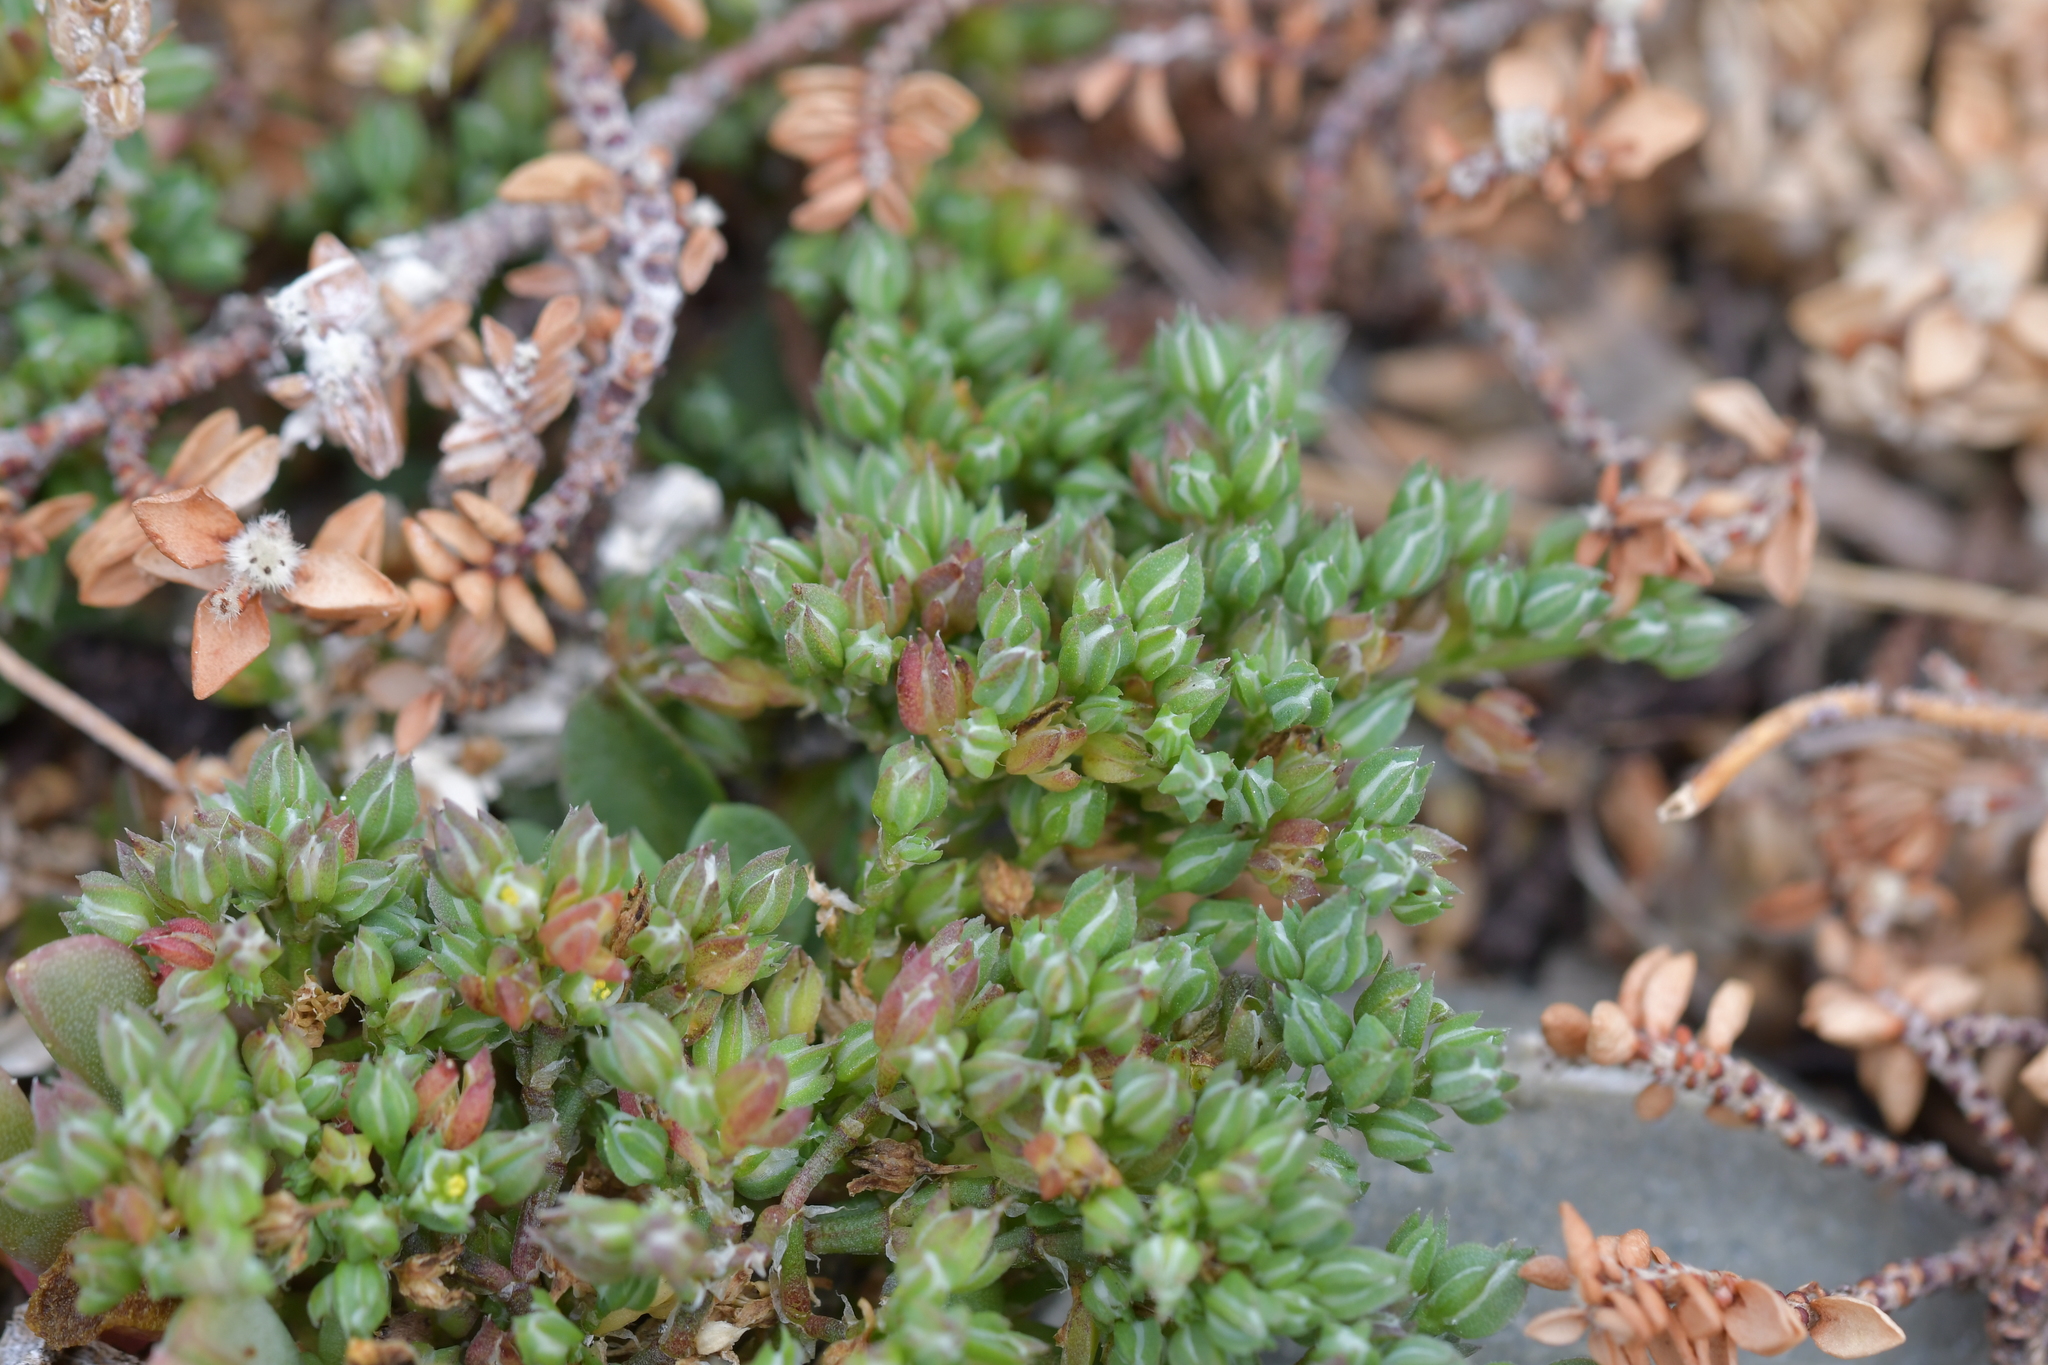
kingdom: Plantae
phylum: Tracheophyta
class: Magnoliopsida
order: Caryophyllales
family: Caryophyllaceae
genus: Polycarpon
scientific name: Polycarpon tetraphyllum
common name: Four-leaved all-seed
